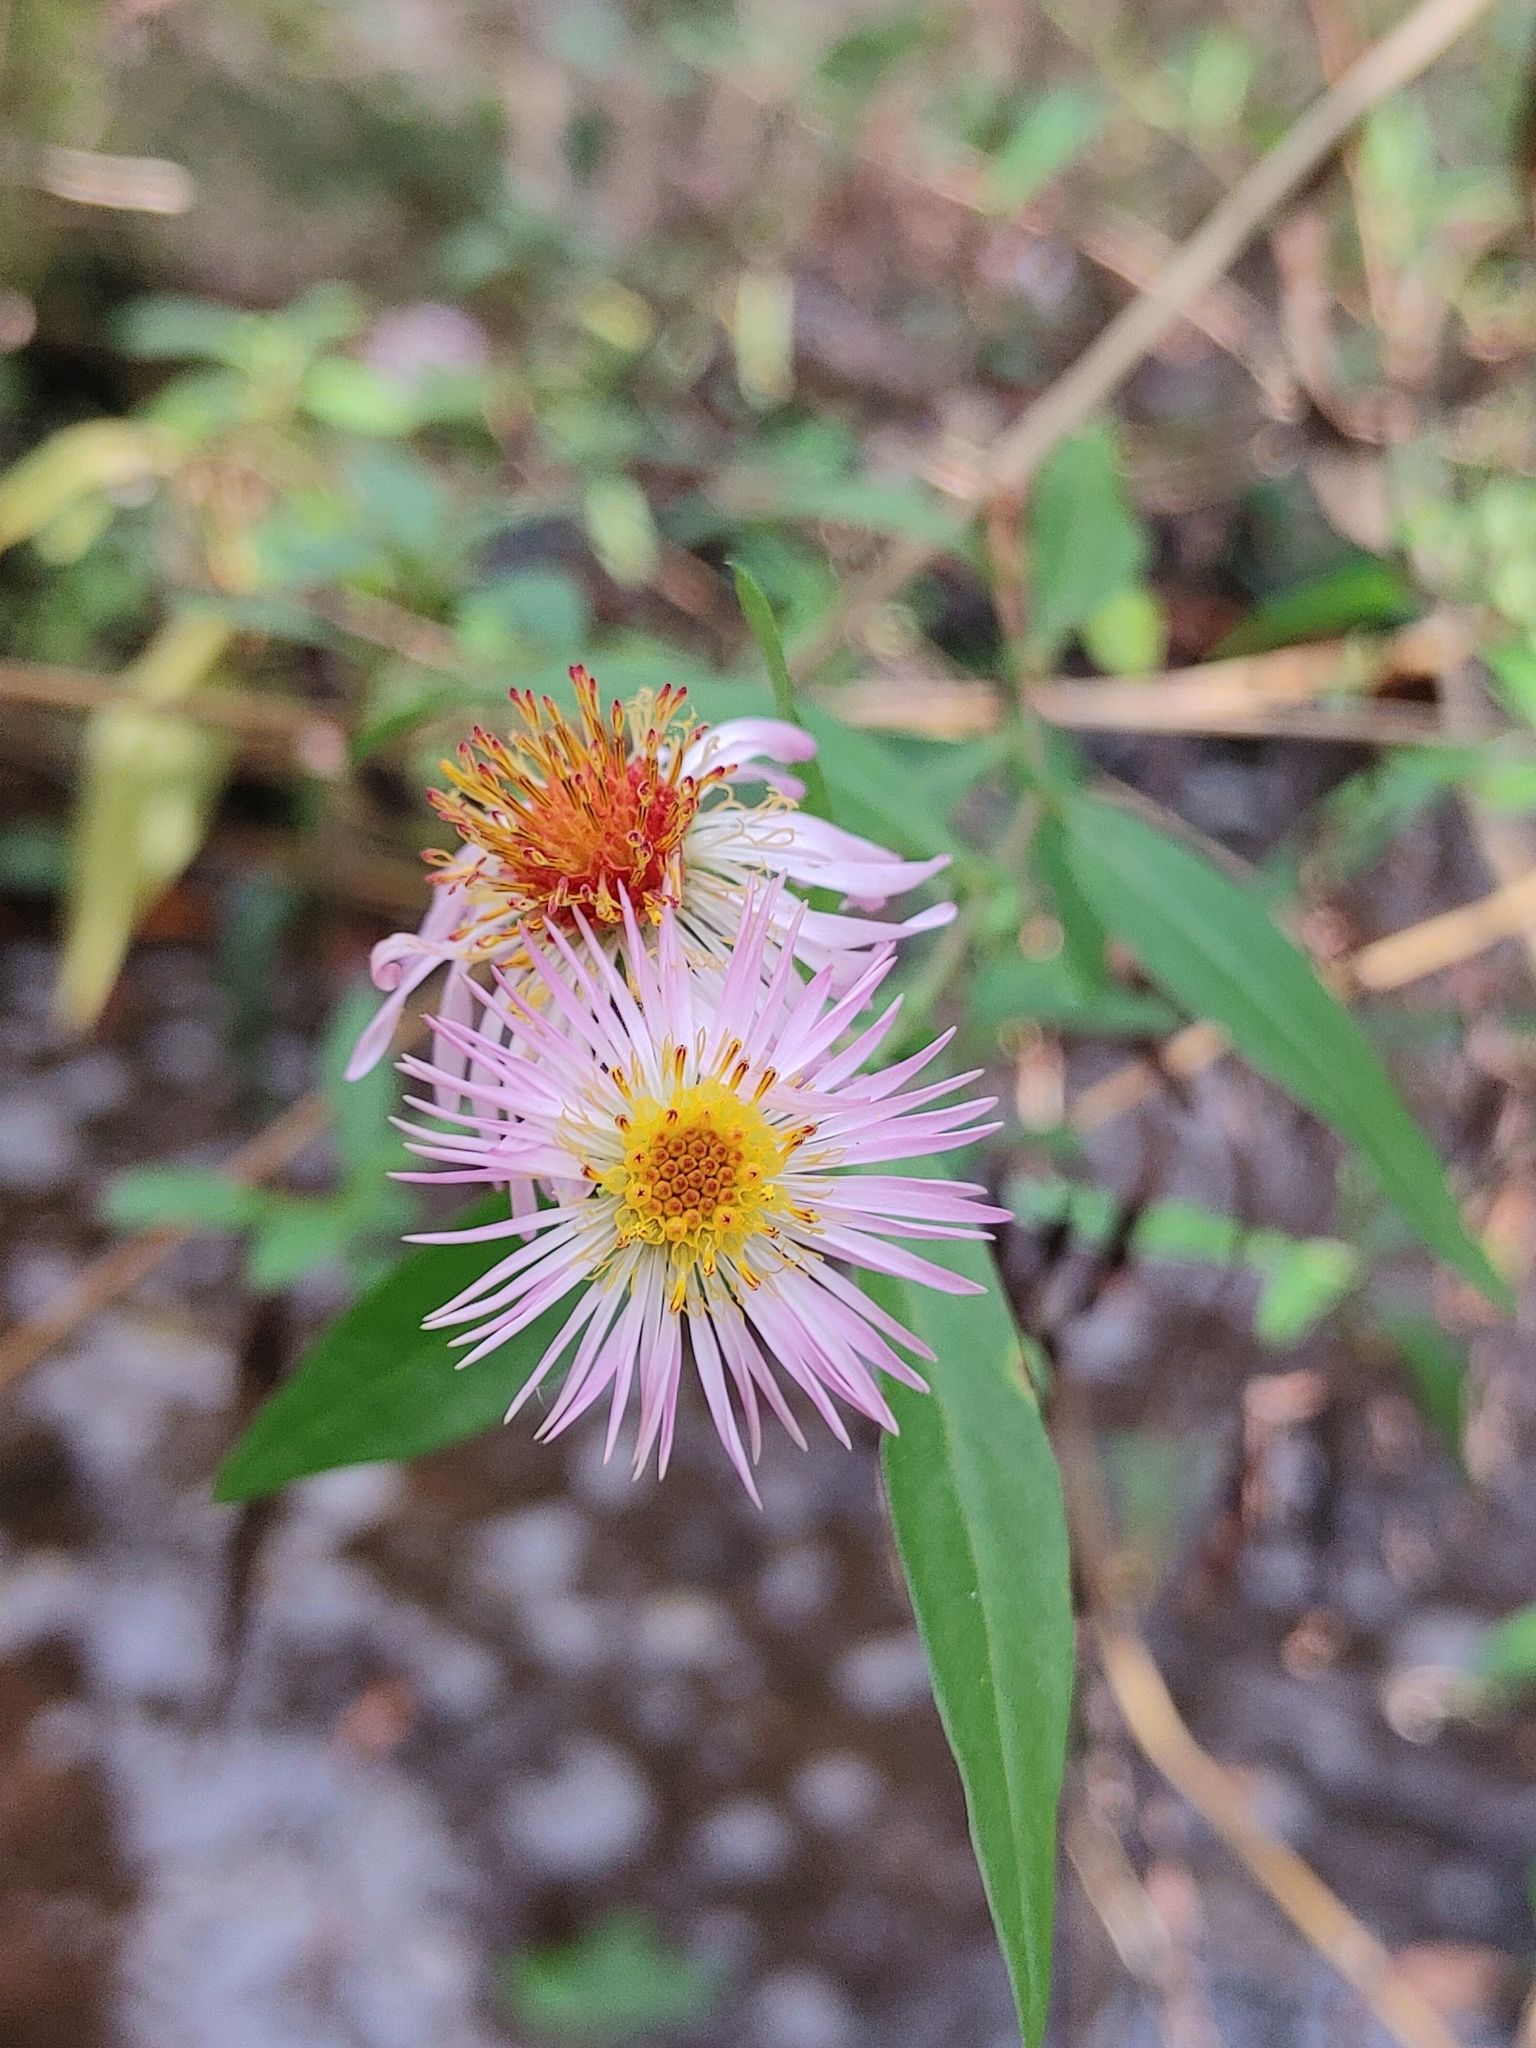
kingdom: Plantae
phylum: Tracheophyta
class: Magnoliopsida
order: Asterales
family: Asteraceae
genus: Ampelaster
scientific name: Ampelaster carolinianus
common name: Climbing aster
